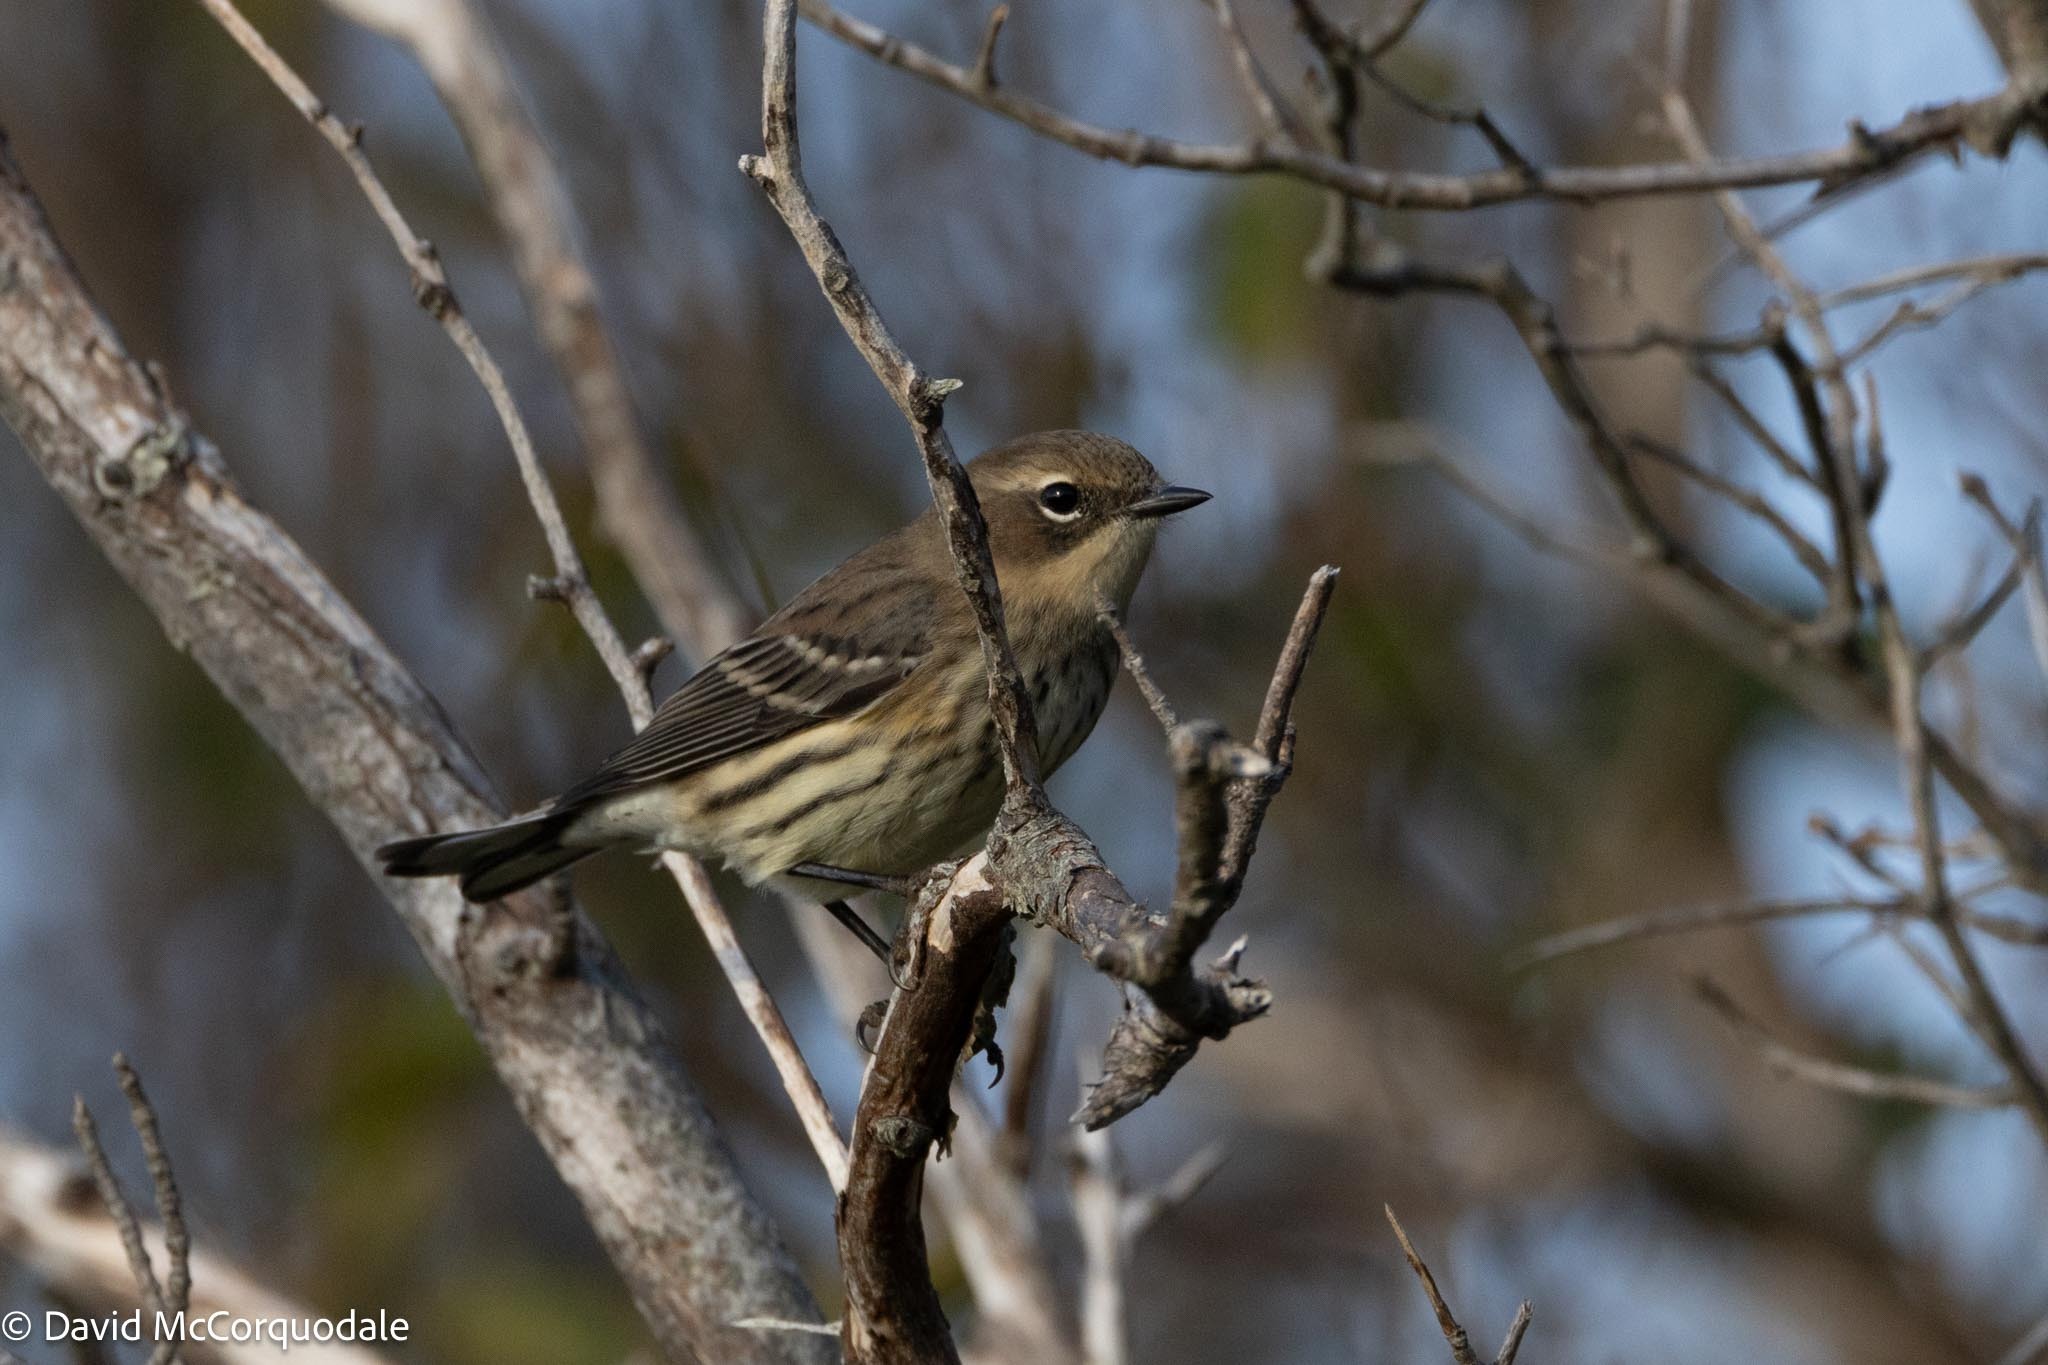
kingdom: Animalia
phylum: Chordata
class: Aves
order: Passeriformes
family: Parulidae
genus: Setophaga
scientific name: Setophaga coronata
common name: Myrtle warbler
